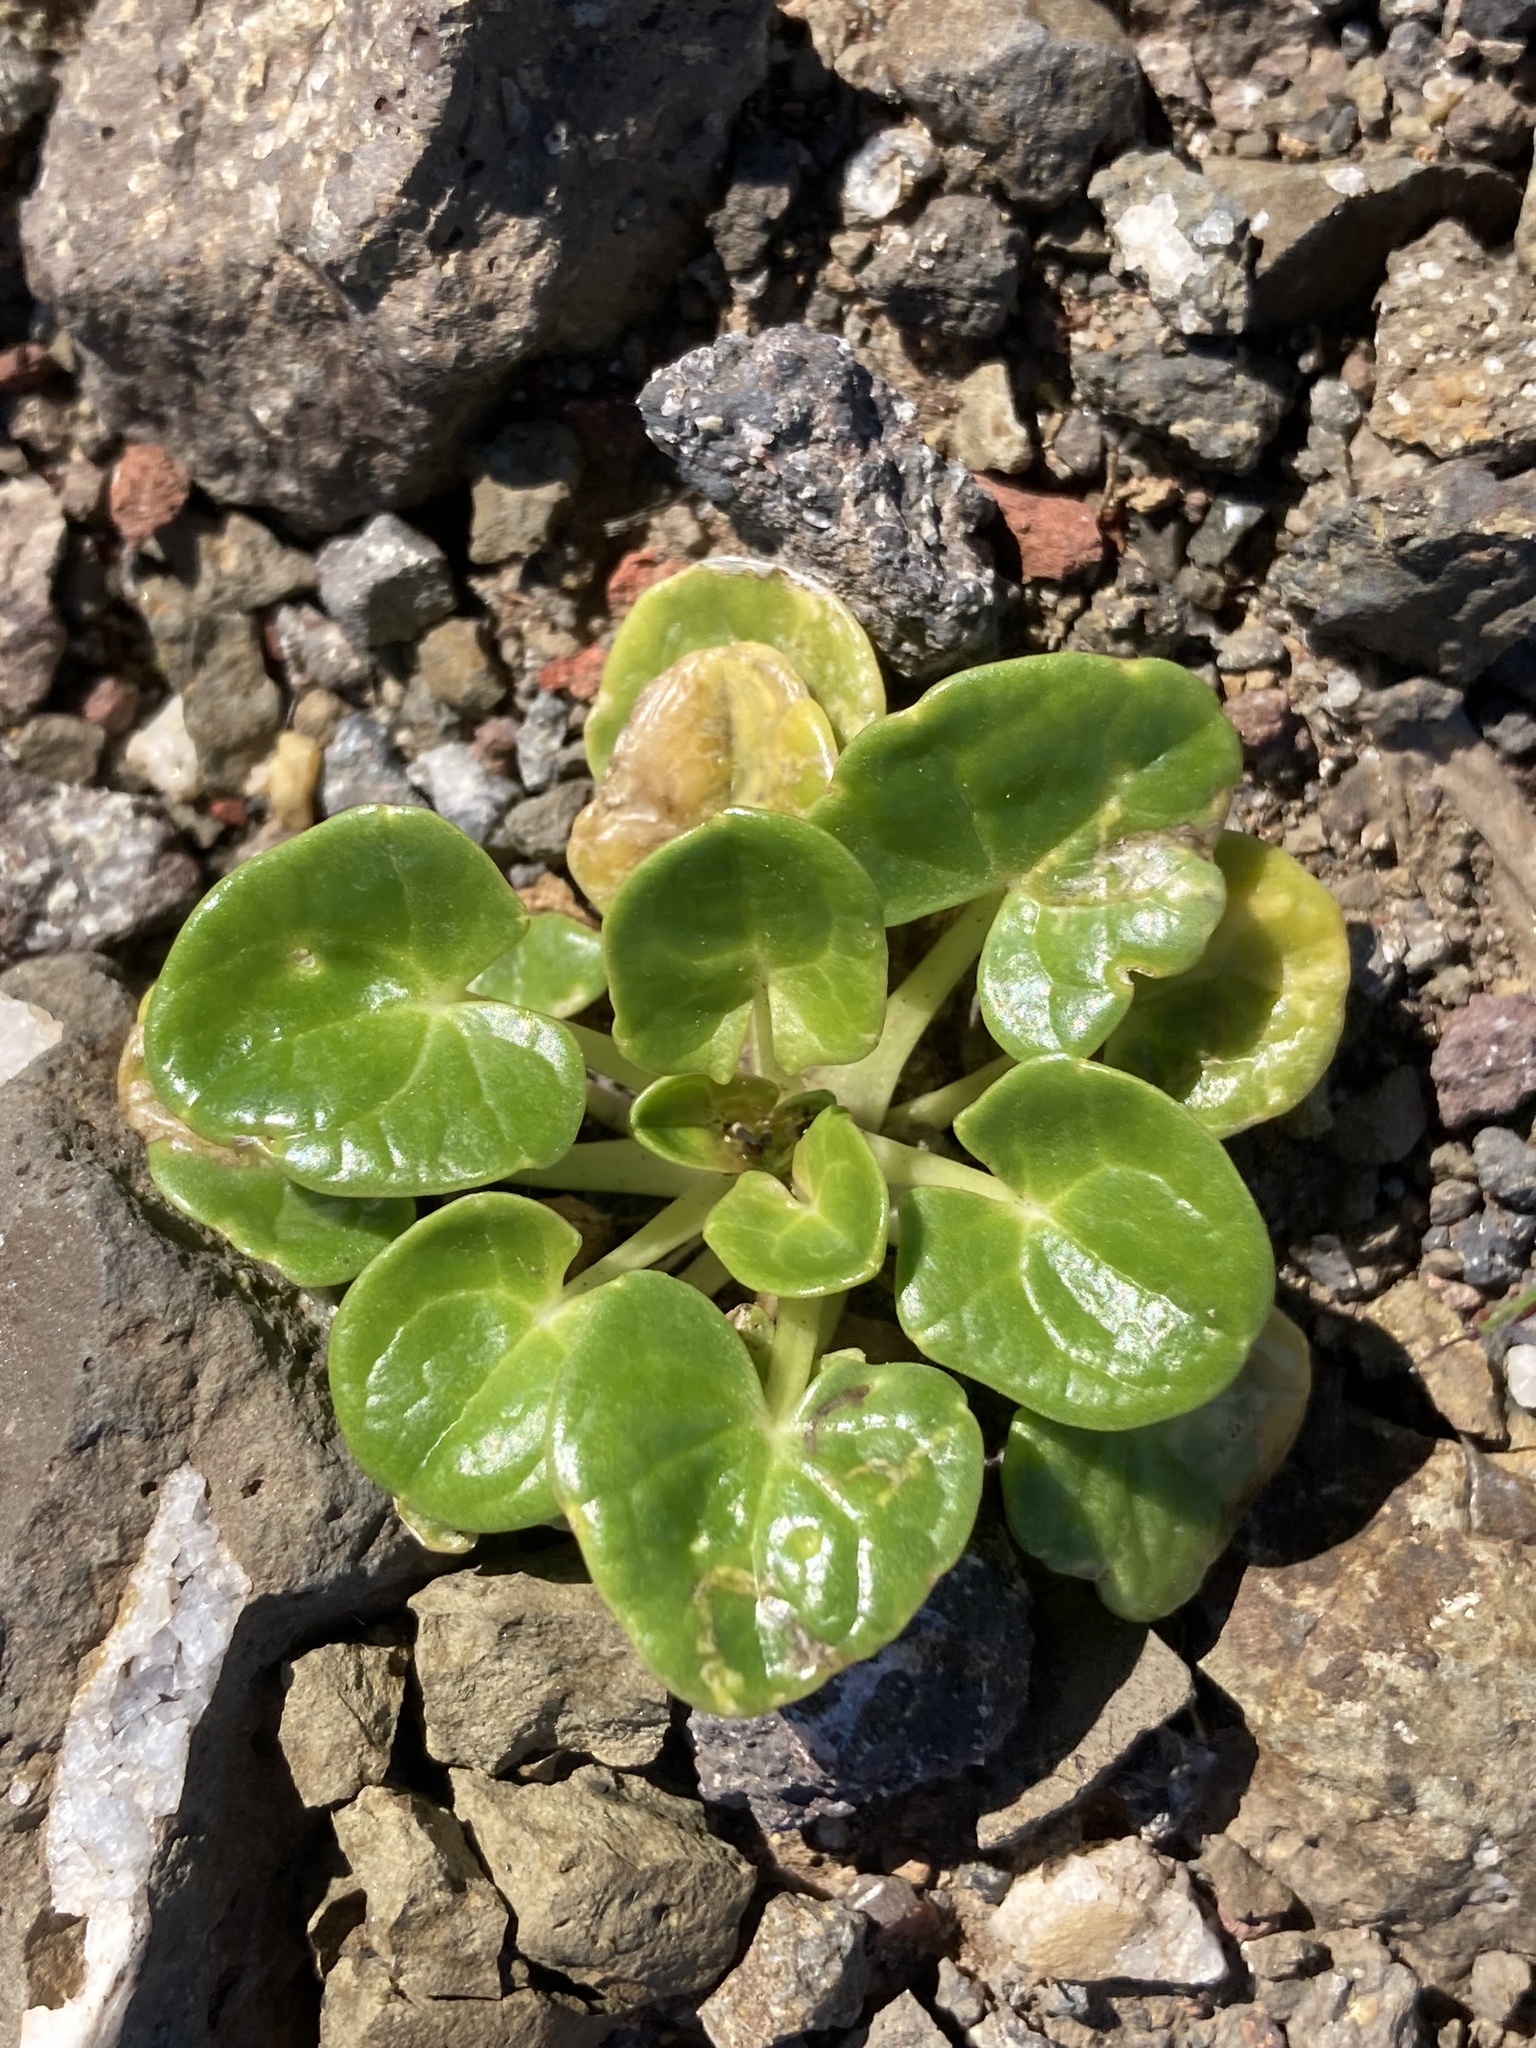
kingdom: Plantae
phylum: Tracheophyta
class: Magnoliopsida
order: Brassicales
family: Brassicaceae
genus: Cochlearia
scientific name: Cochlearia officinalis
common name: Scurvy-grass
